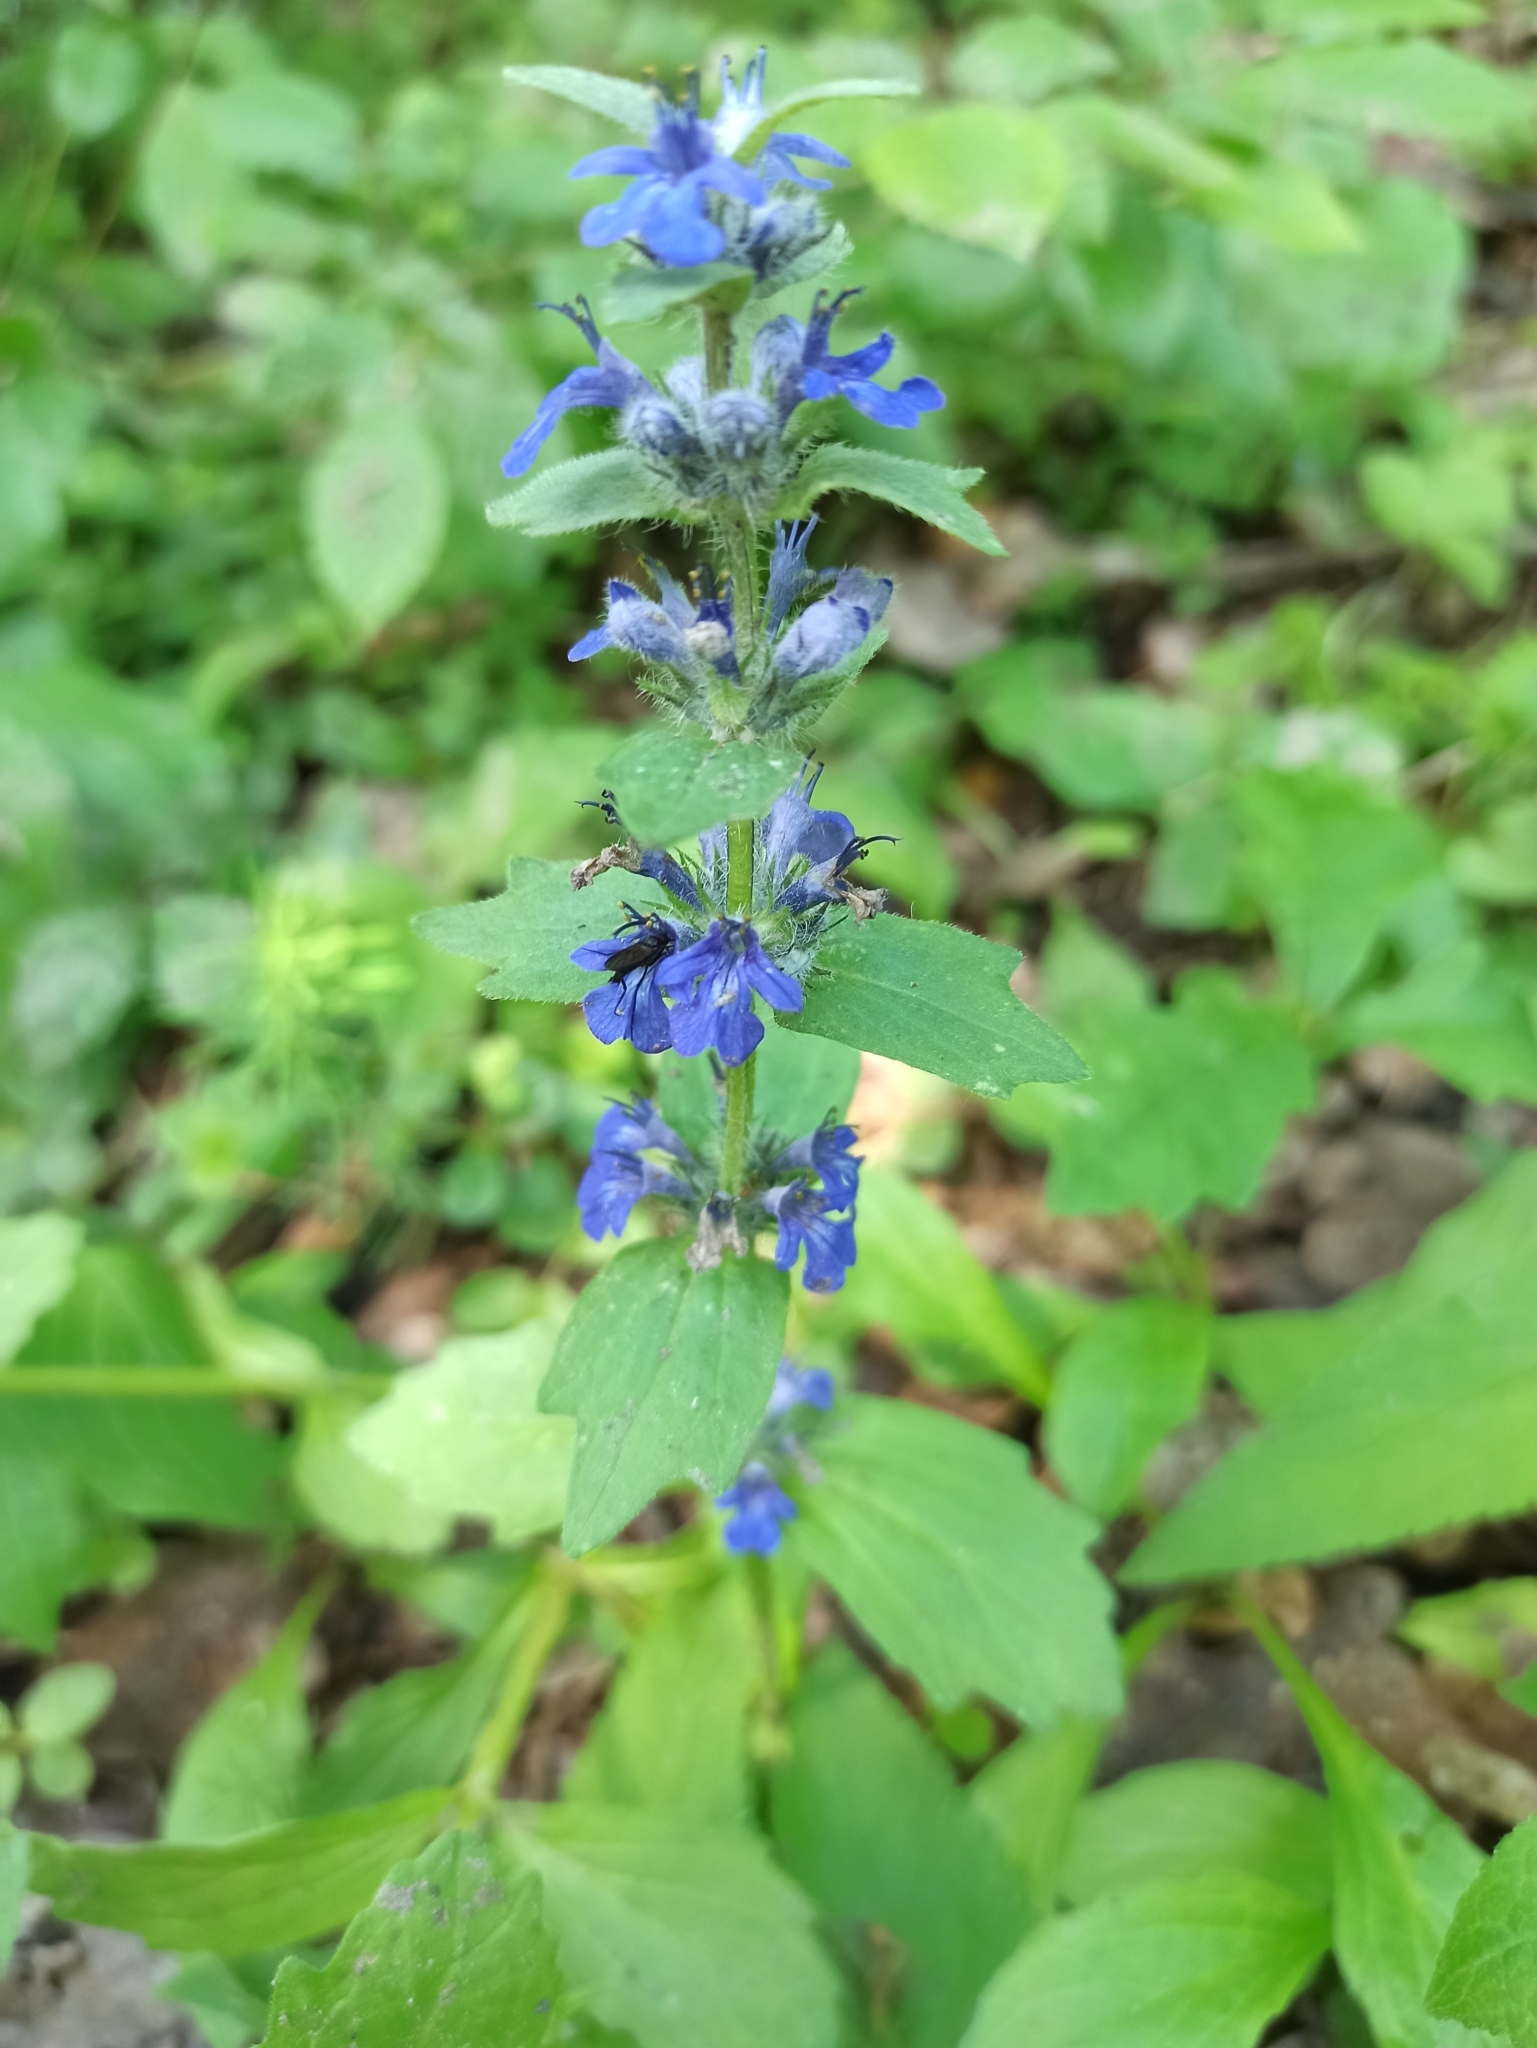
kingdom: Plantae
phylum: Tracheophyta
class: Magnoliopsida
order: Lamiales
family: Lamiaceae
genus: Ajuga
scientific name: Ajuga genevensis
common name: Blue bugle
